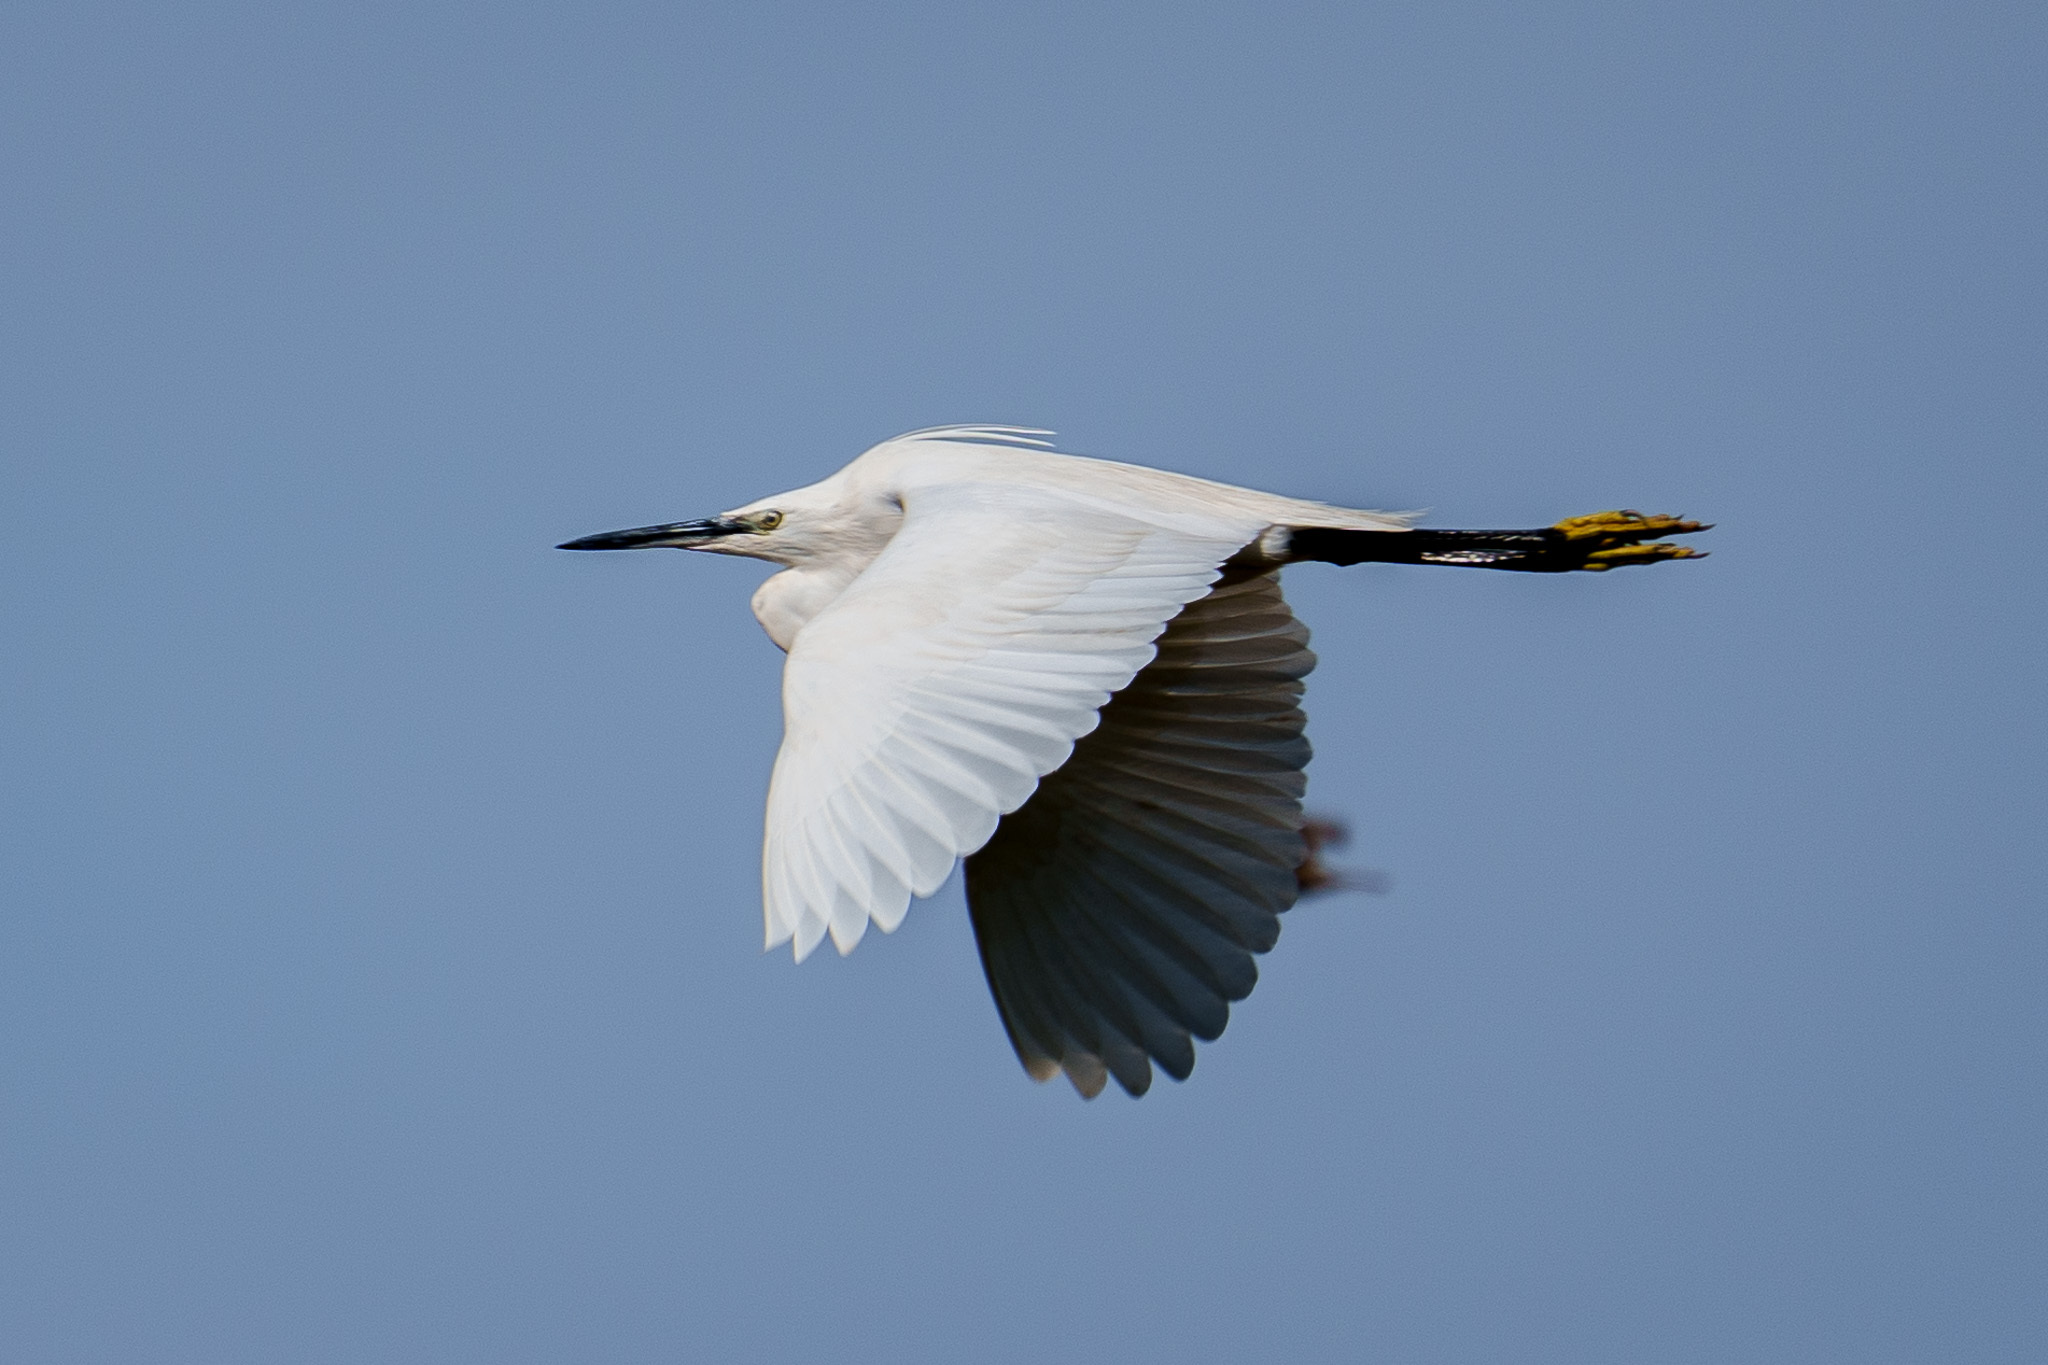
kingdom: Animalia
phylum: Chordata
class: Aves
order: Pelecaniformes
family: Ardeidae
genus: Egretta
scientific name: Egretta garzetta
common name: Little egret
